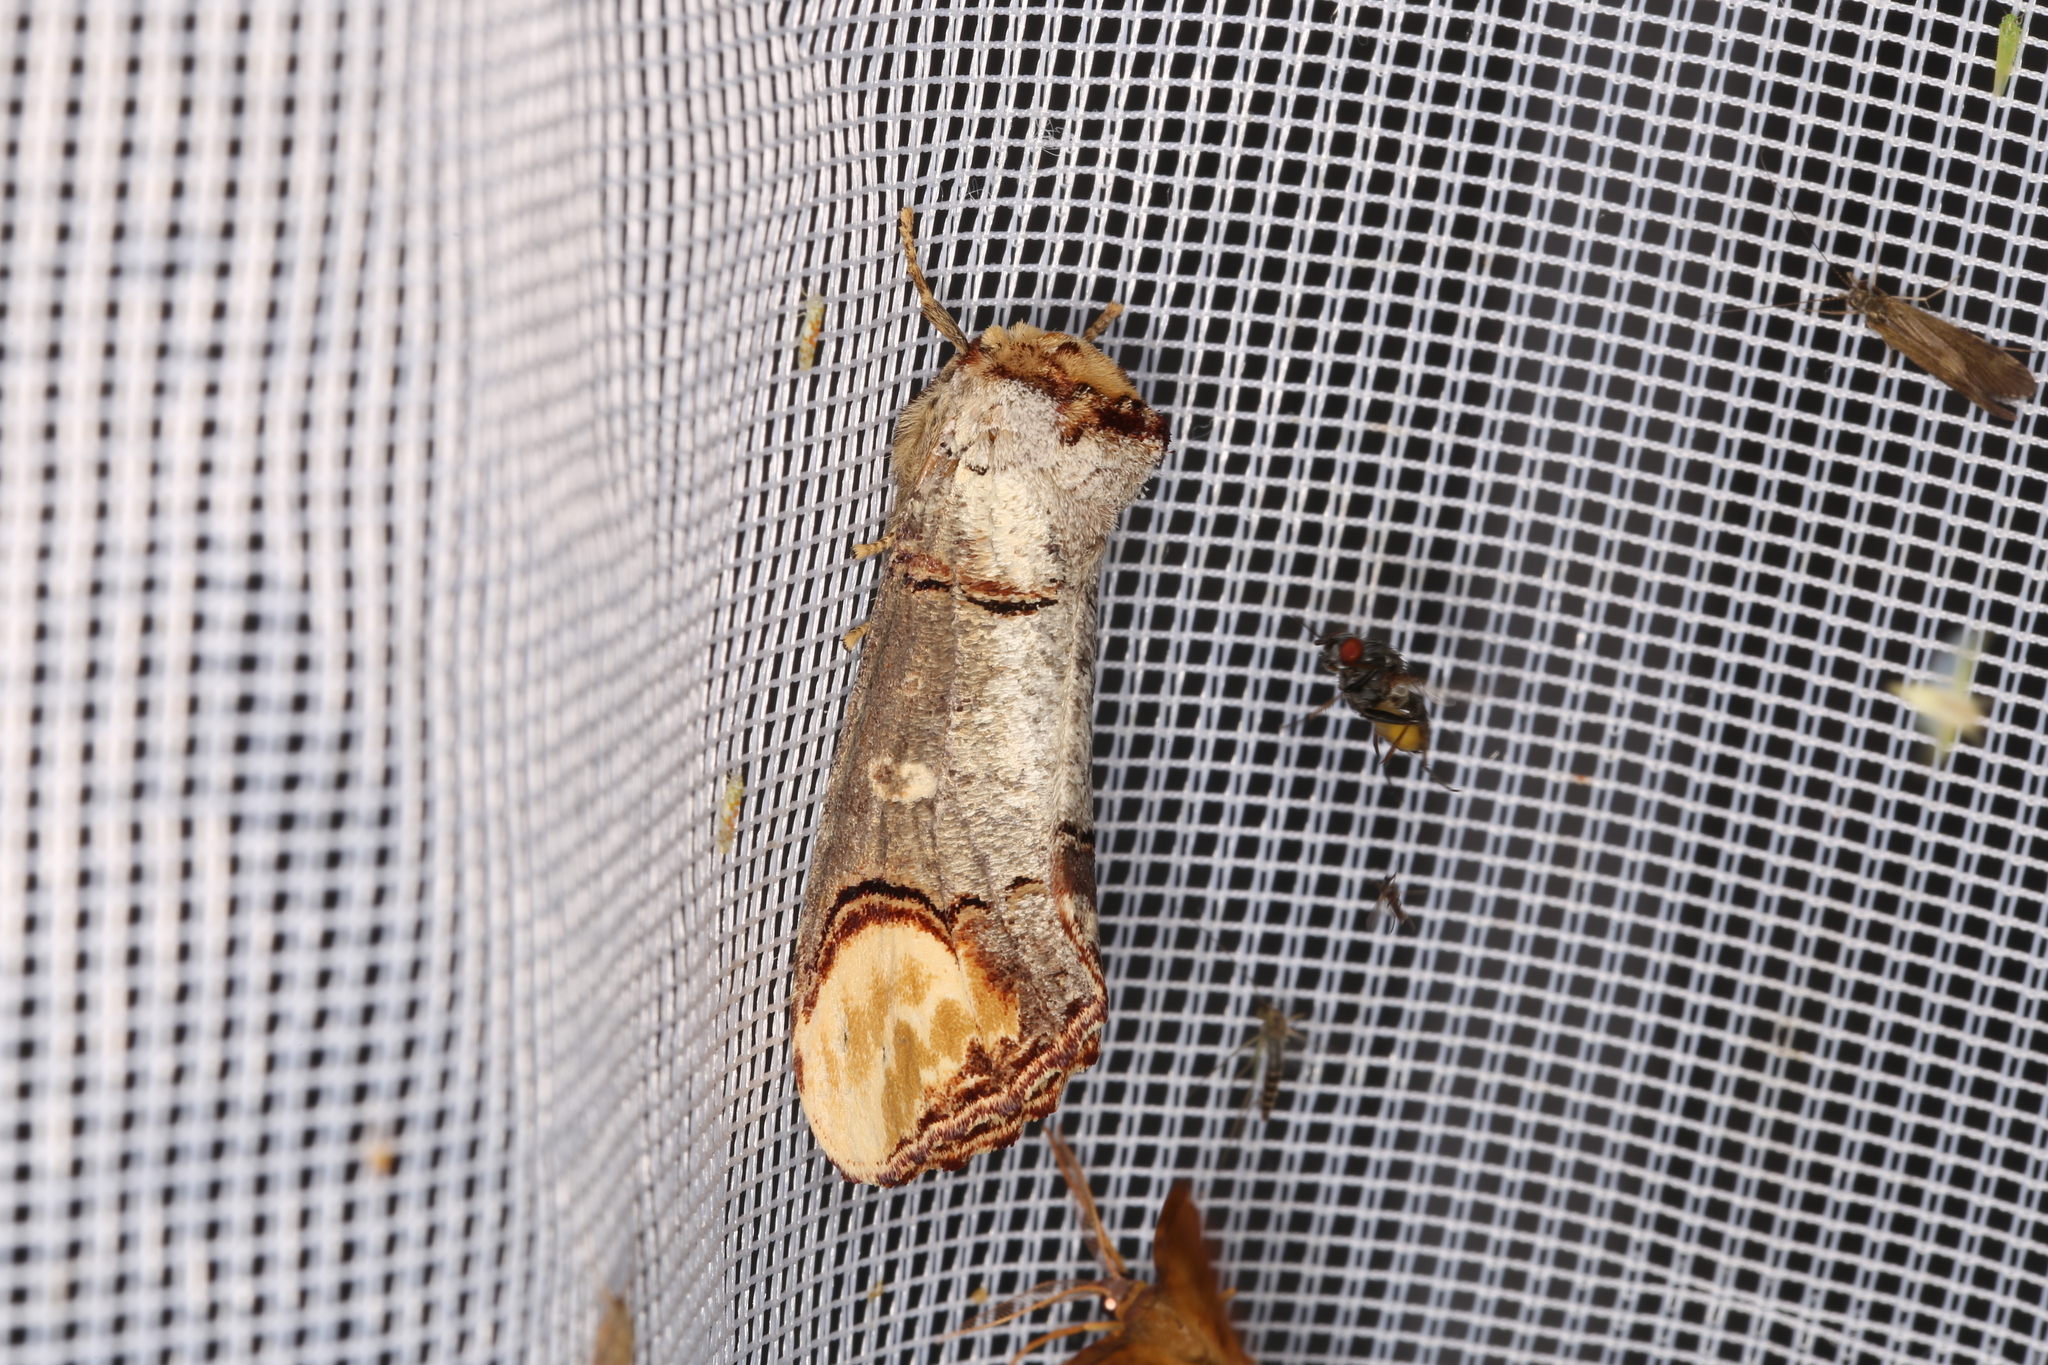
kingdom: Animalia
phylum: Arthropoda
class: Insecta
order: Lepidoptera
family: Notodontidae
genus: Phalera
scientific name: Phalera bucephala
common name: Buff-tip
